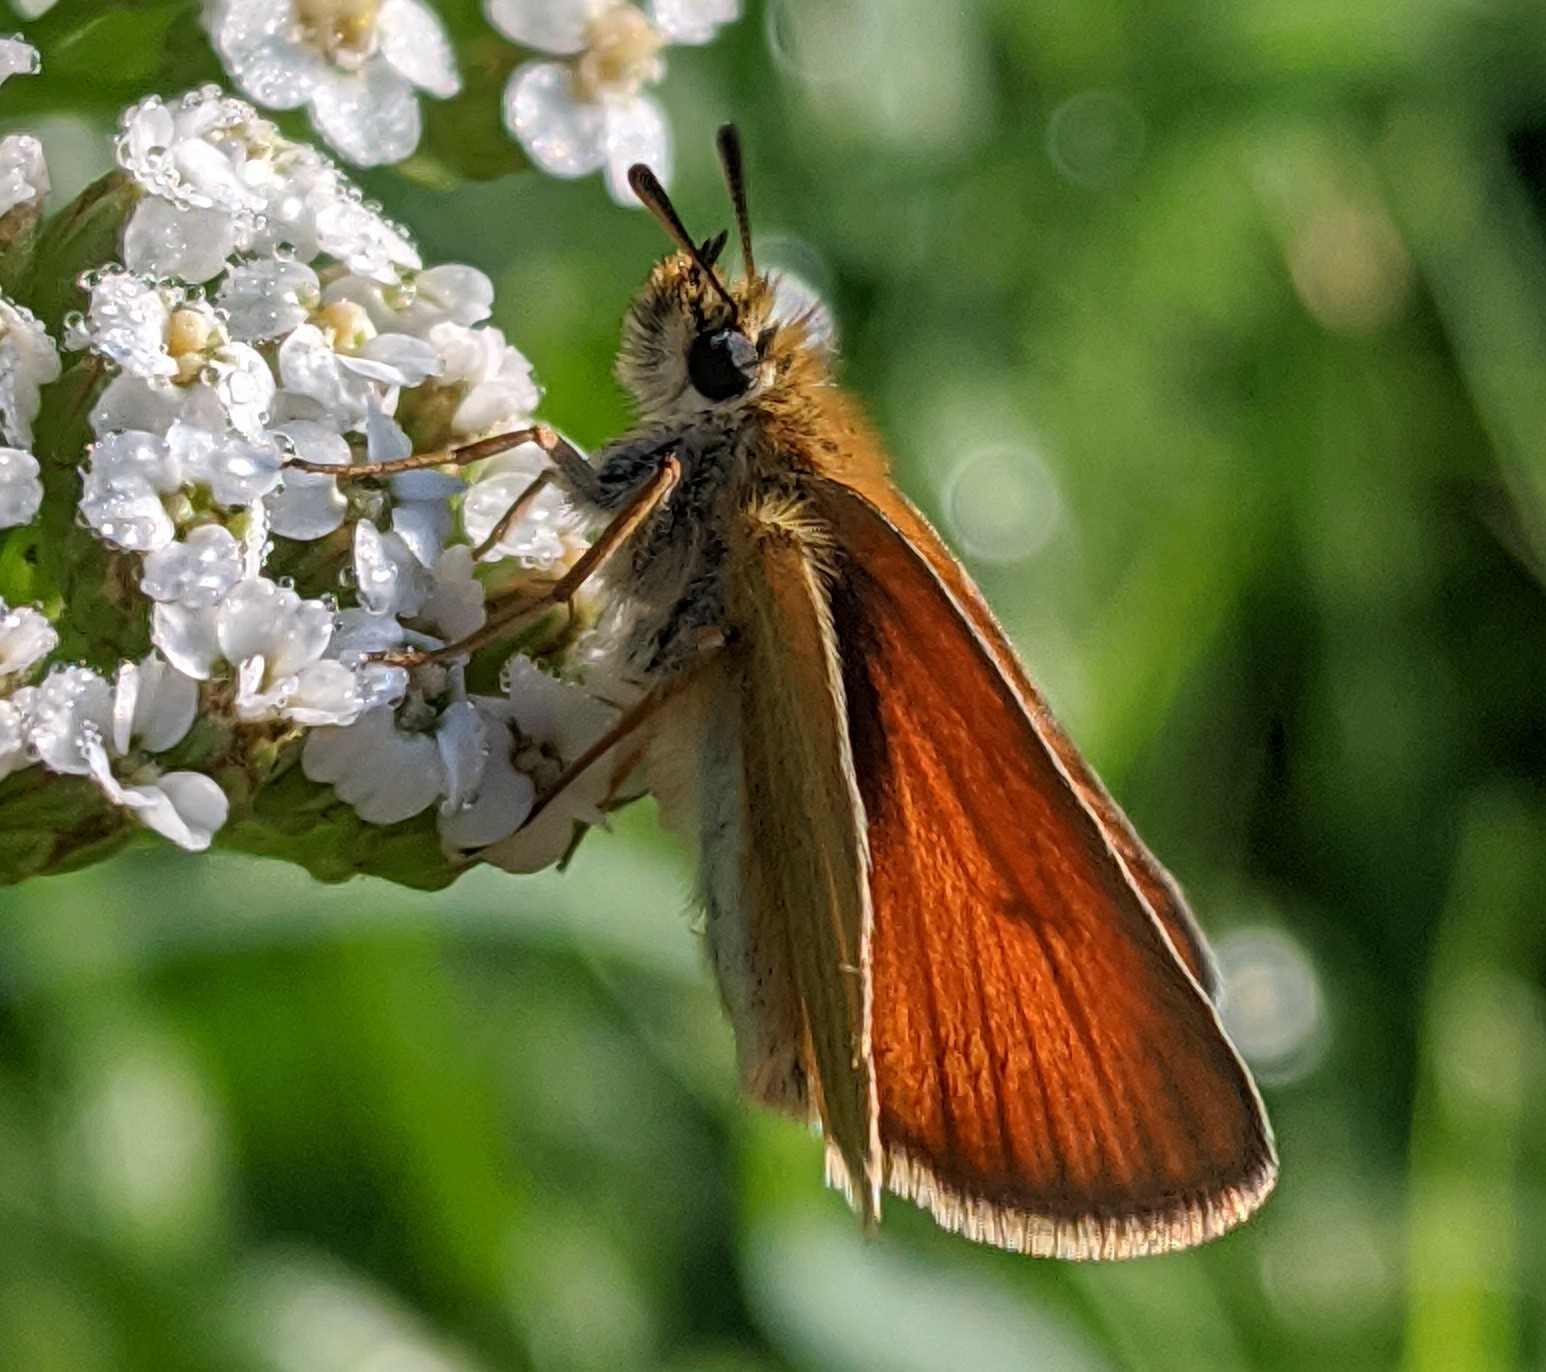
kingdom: Animalia
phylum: Arthropoda
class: Insecta
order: Lepidoptera
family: Hesperiidae
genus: Thymelicus
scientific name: Thymelicus lineola
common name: Essex skipper
